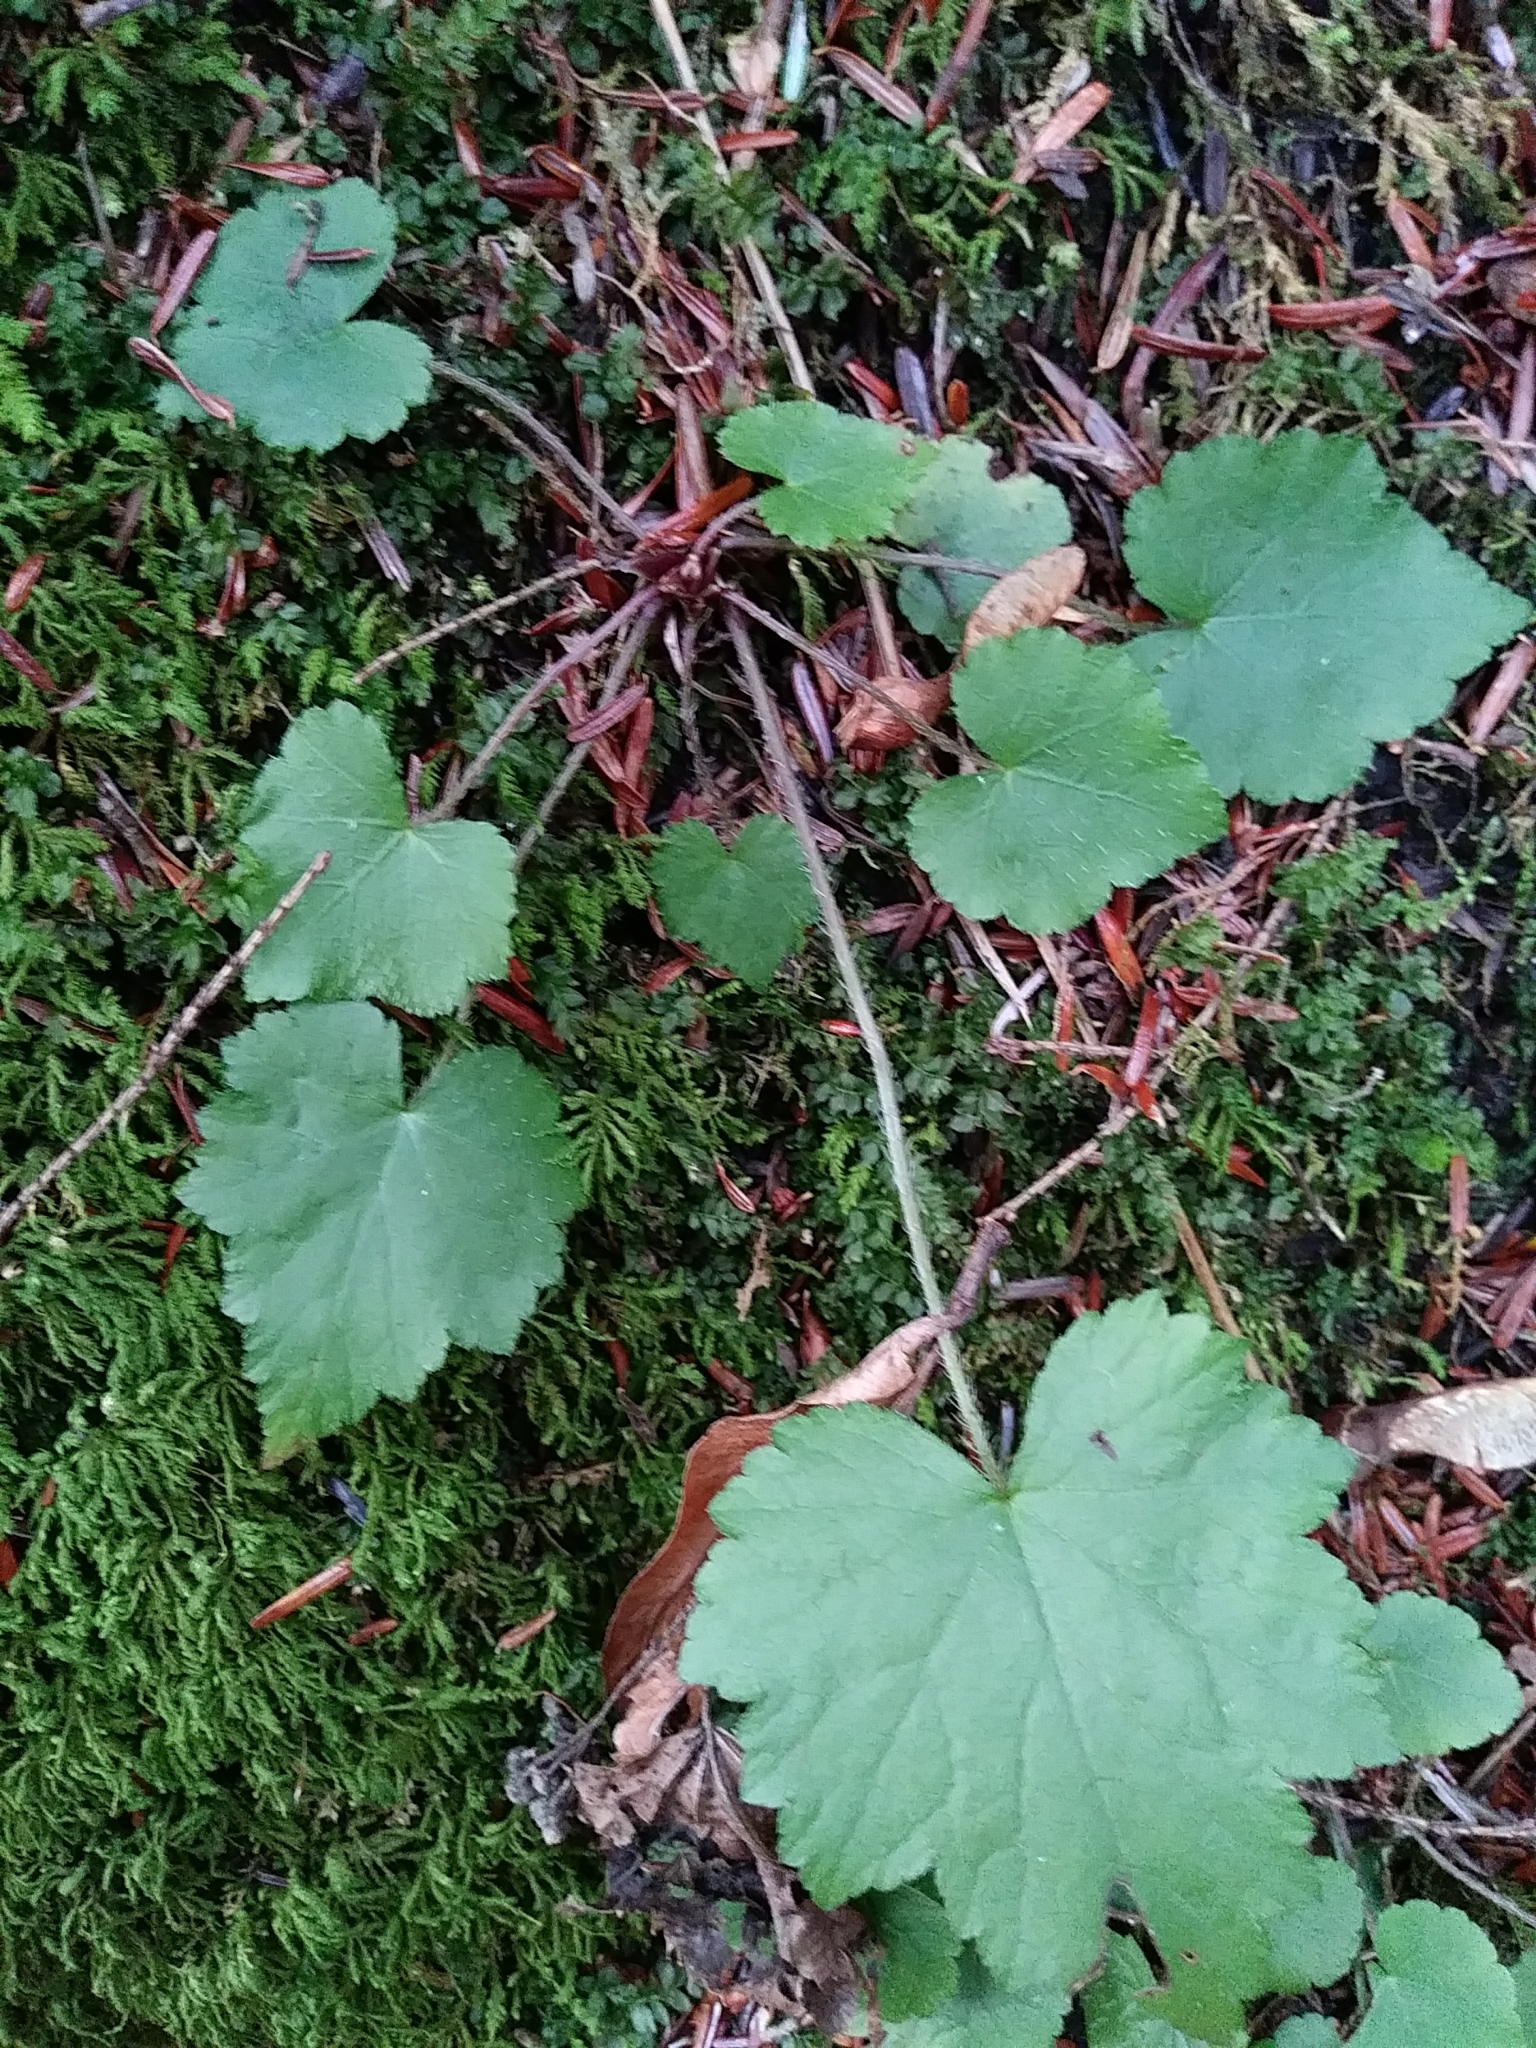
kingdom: Plantae
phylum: Tracheophyta
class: Magnoliopsida
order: Saxifragales
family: Saxifragaceae
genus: Mitella
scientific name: Mitella diphylla
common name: Coolwort
